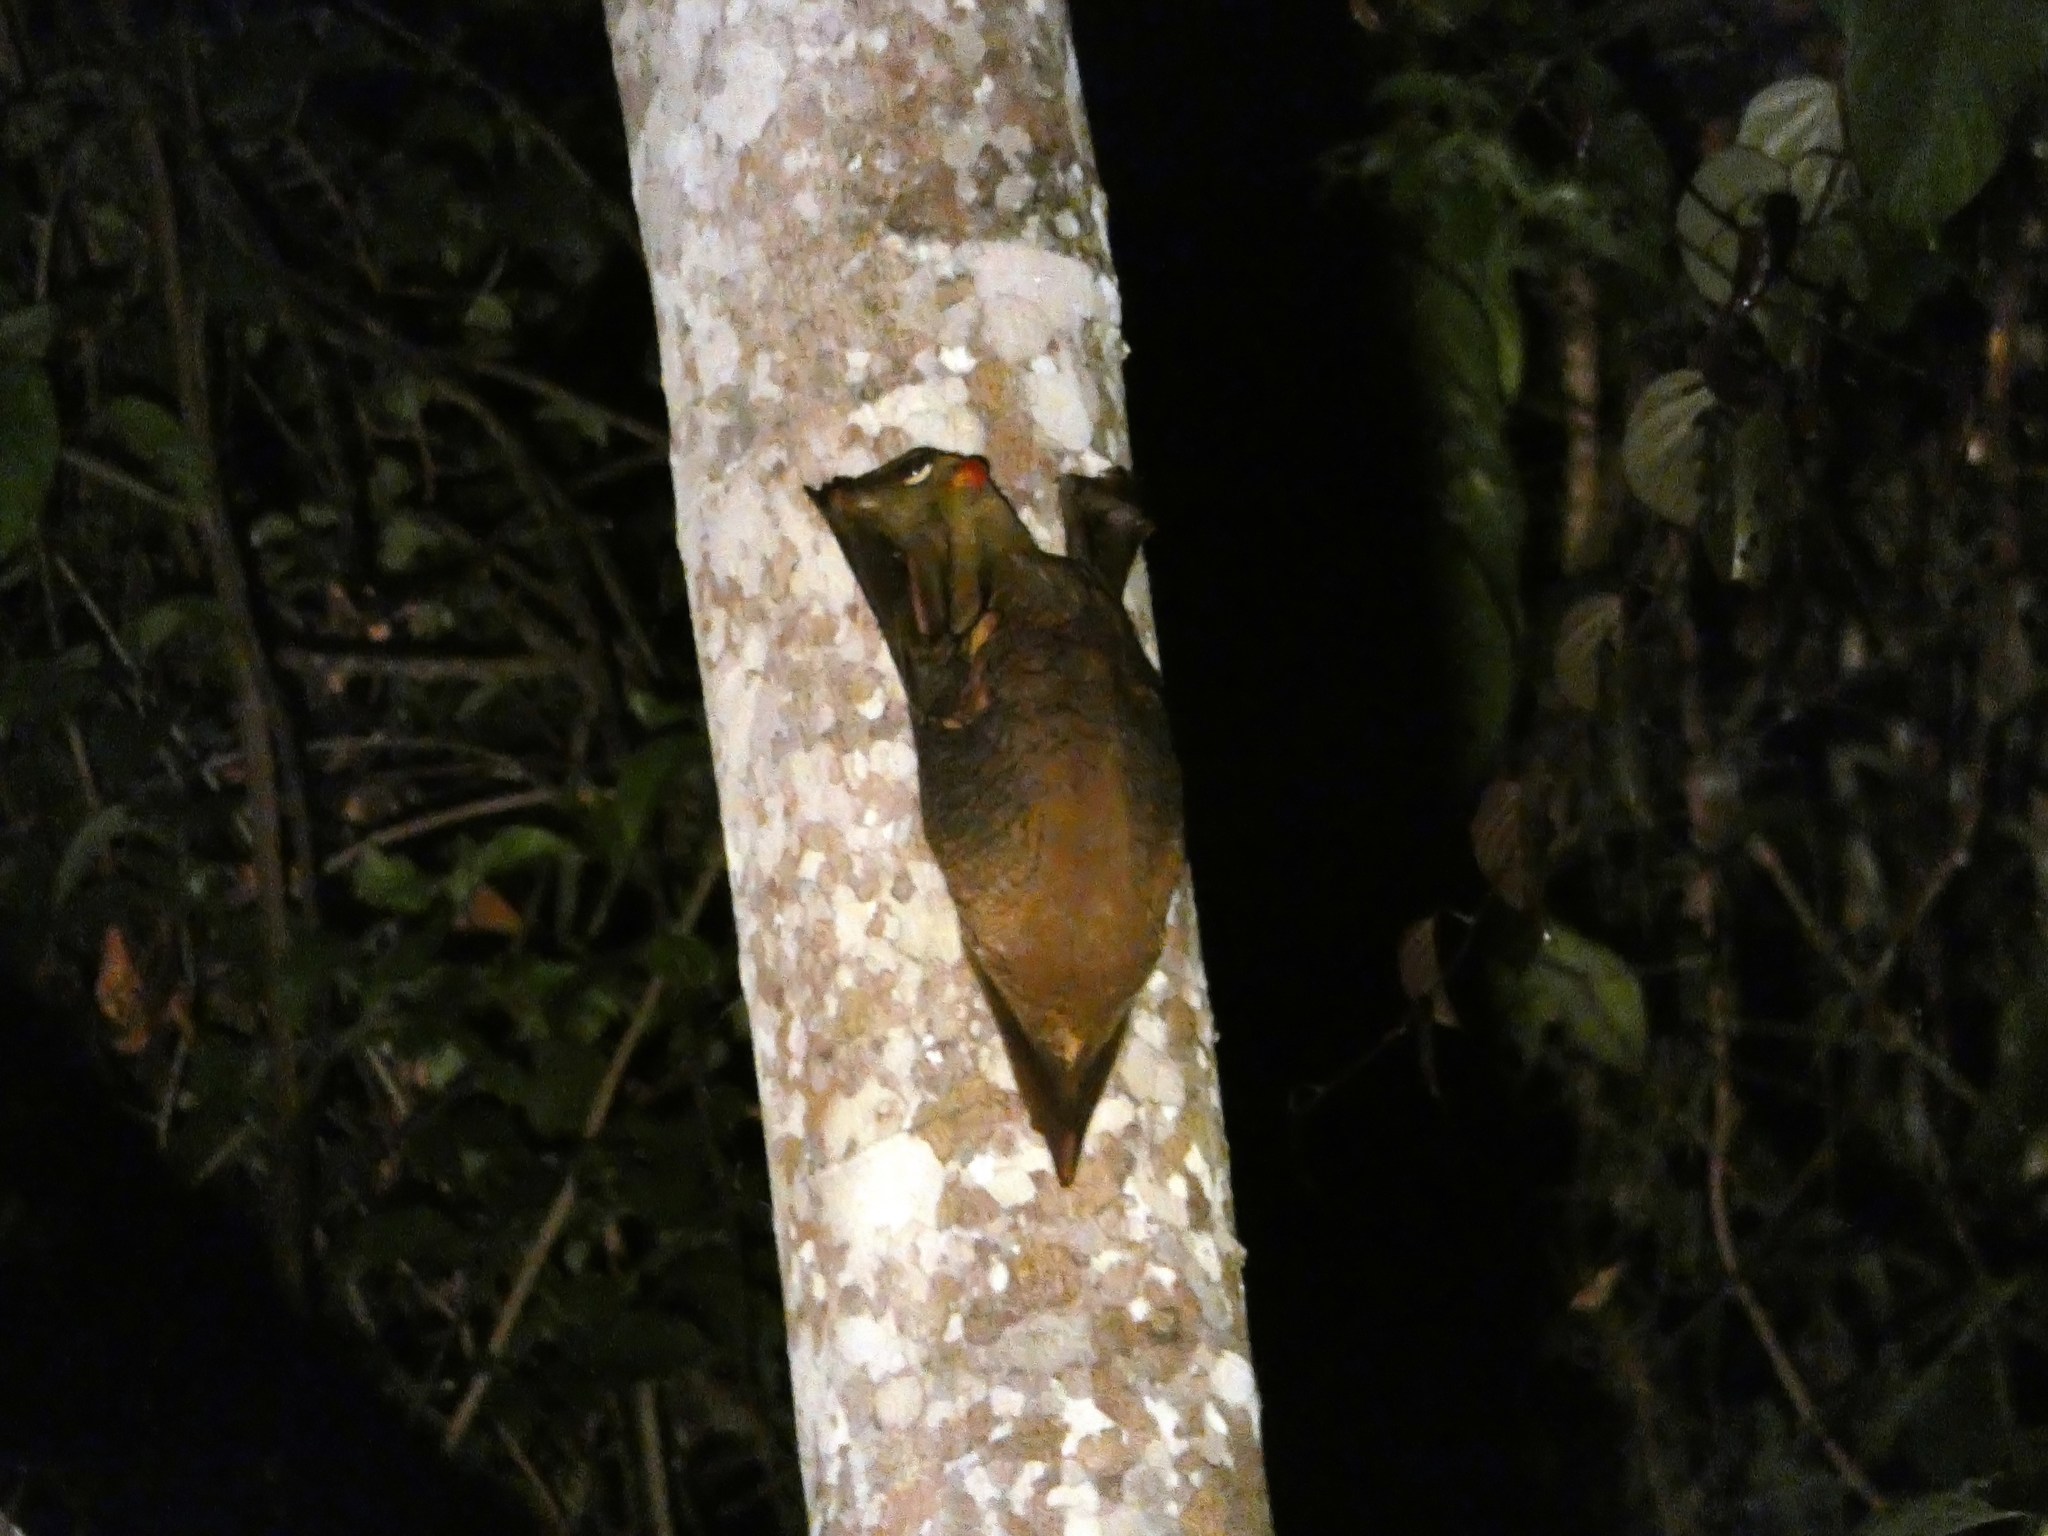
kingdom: Animalia
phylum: Chordata
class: Mammalia
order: Dermoptera
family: Cynocephalidae
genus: Galeopterus
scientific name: Galeopterus variegatus
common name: Sunda flying lemur
